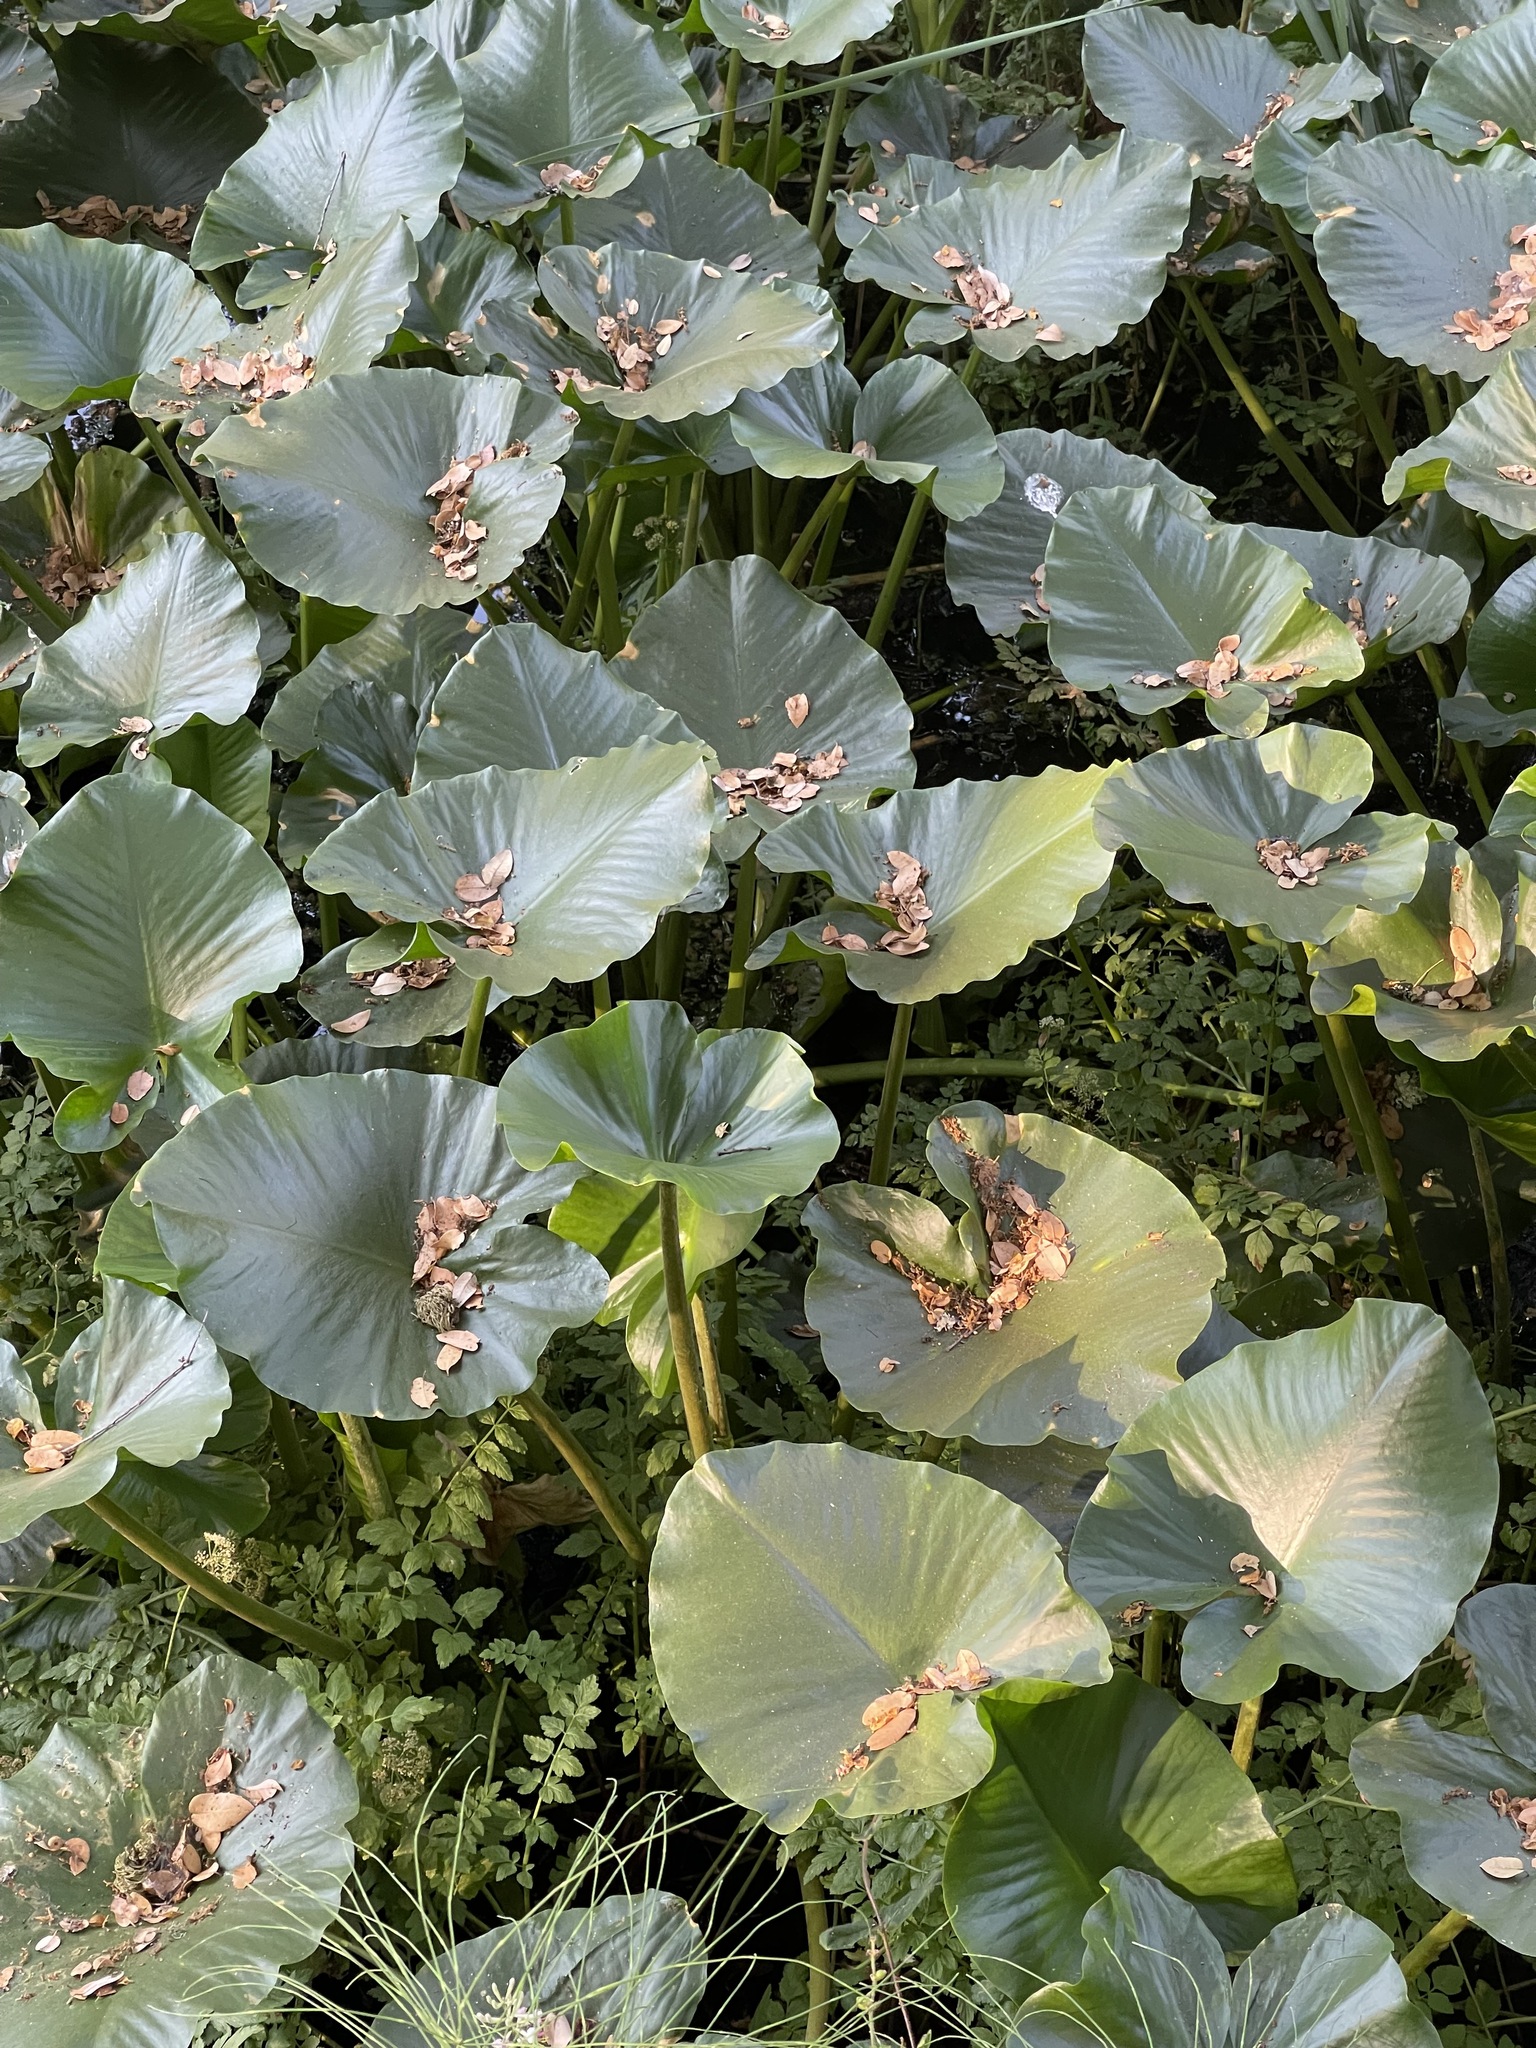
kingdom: Plantae
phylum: Tracheophyta
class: Magnoliopsida
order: Nymphaeales
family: Nymphaeaceae
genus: Nuphar
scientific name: Nuphar polysepala
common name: Rocky mountain cow-lily
